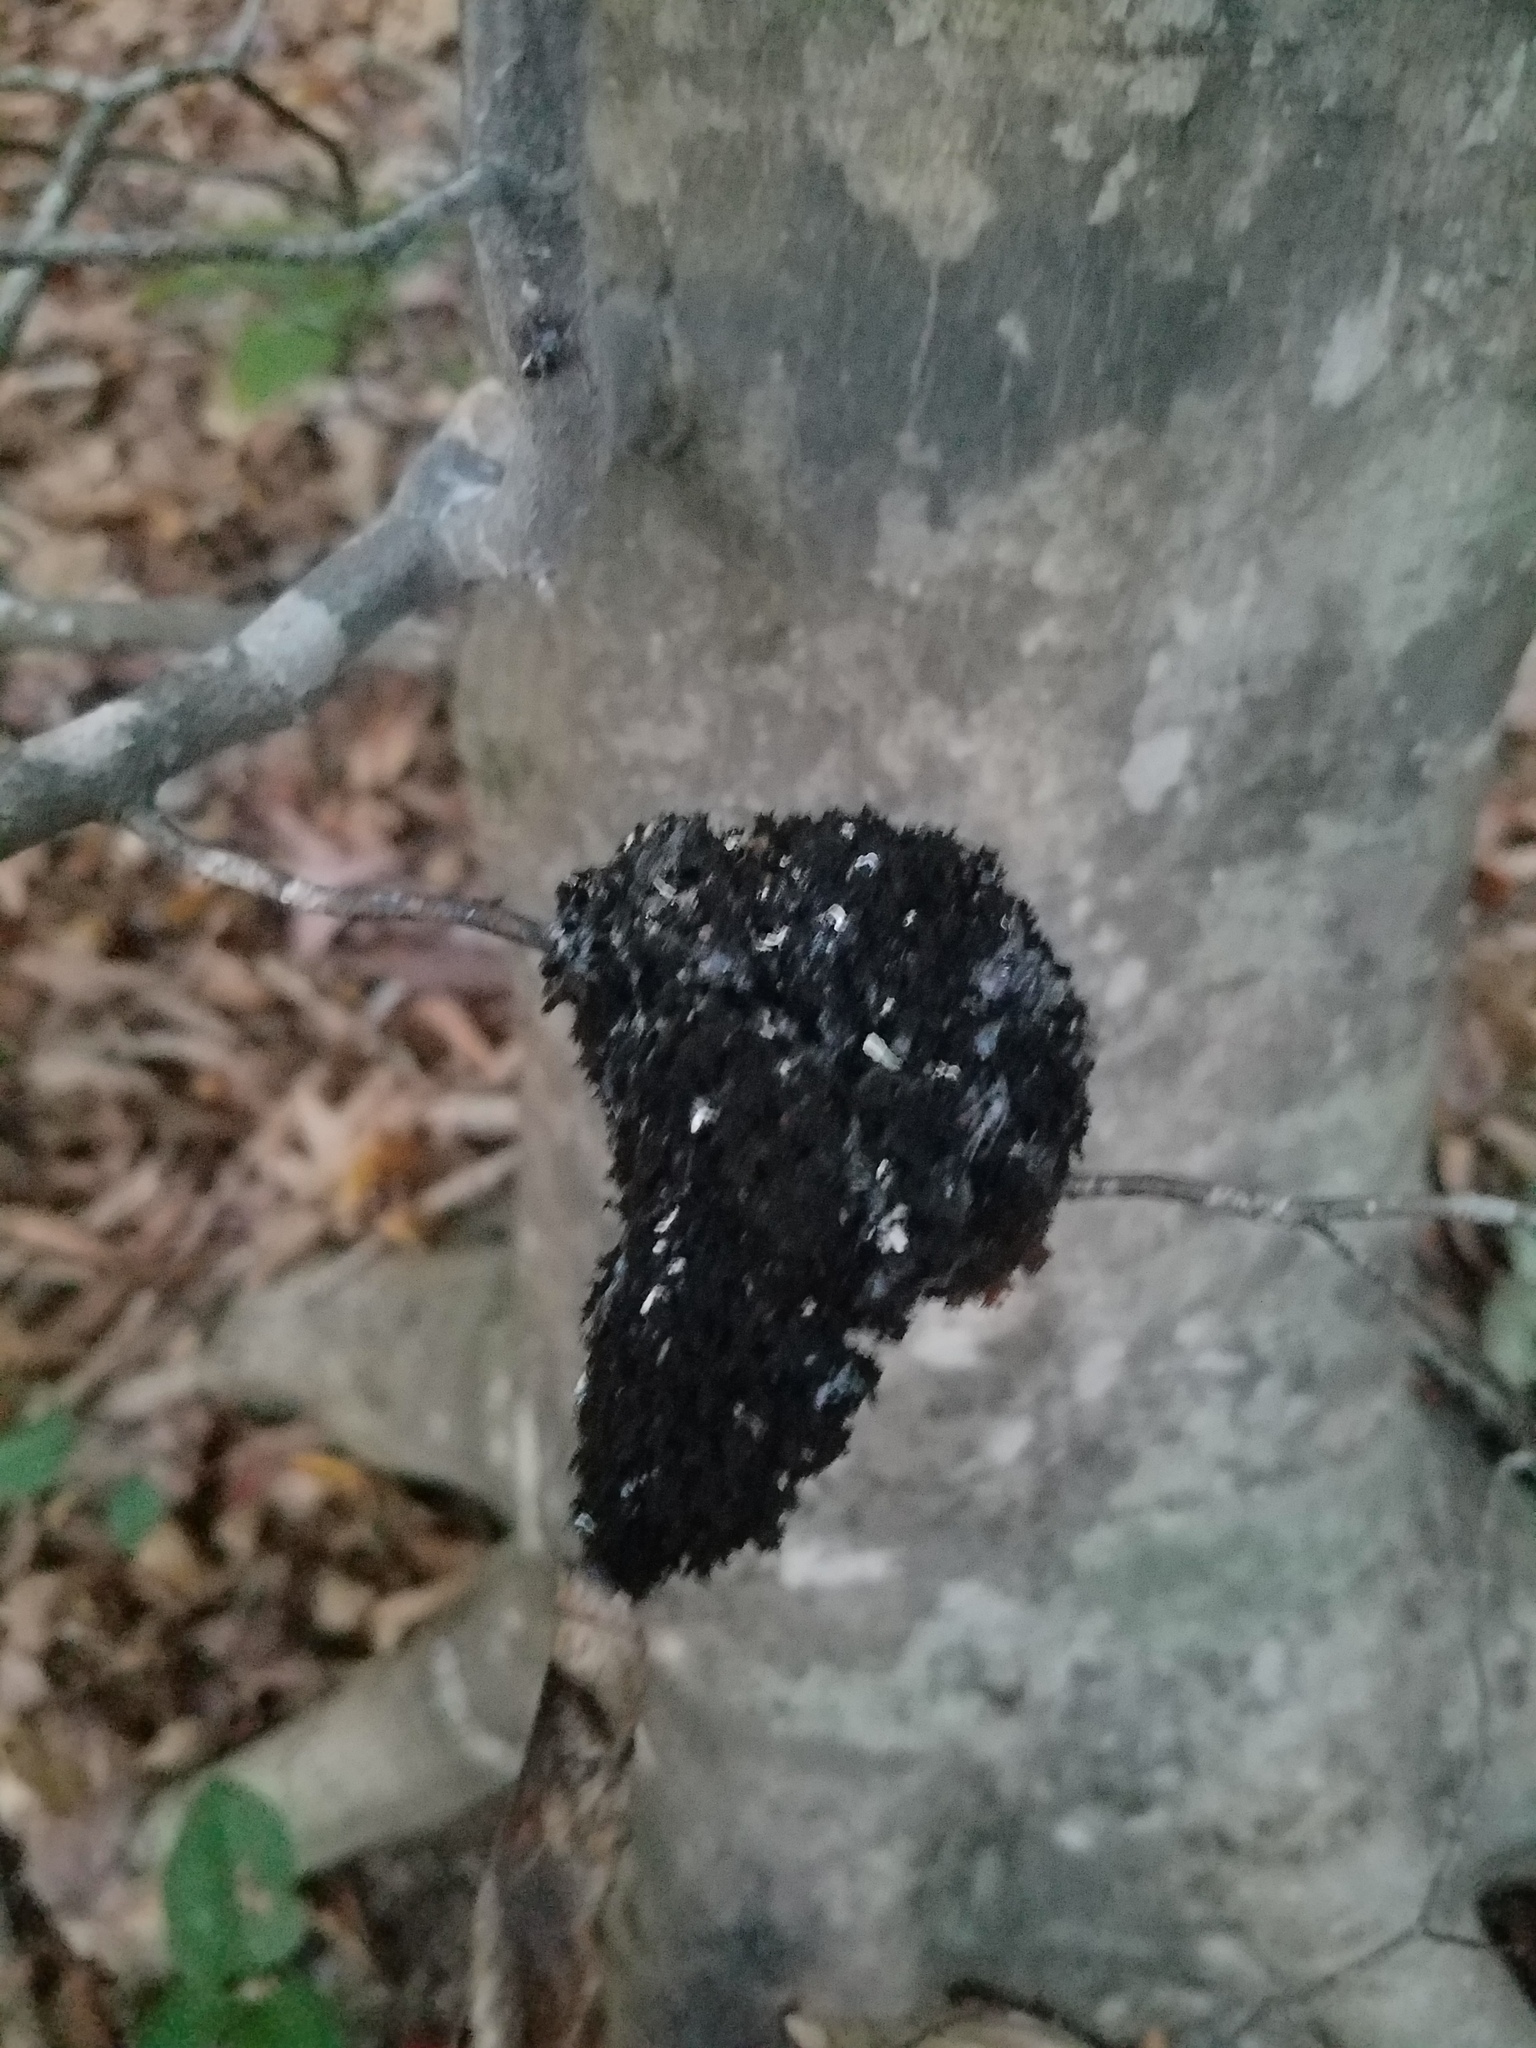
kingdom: Fungi
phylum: Ascomycota
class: Dothideomycetes
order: Capnodiales
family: Capnodiaceae
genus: Scorias
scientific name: Scorias spongiosa
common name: Black sooty mold
